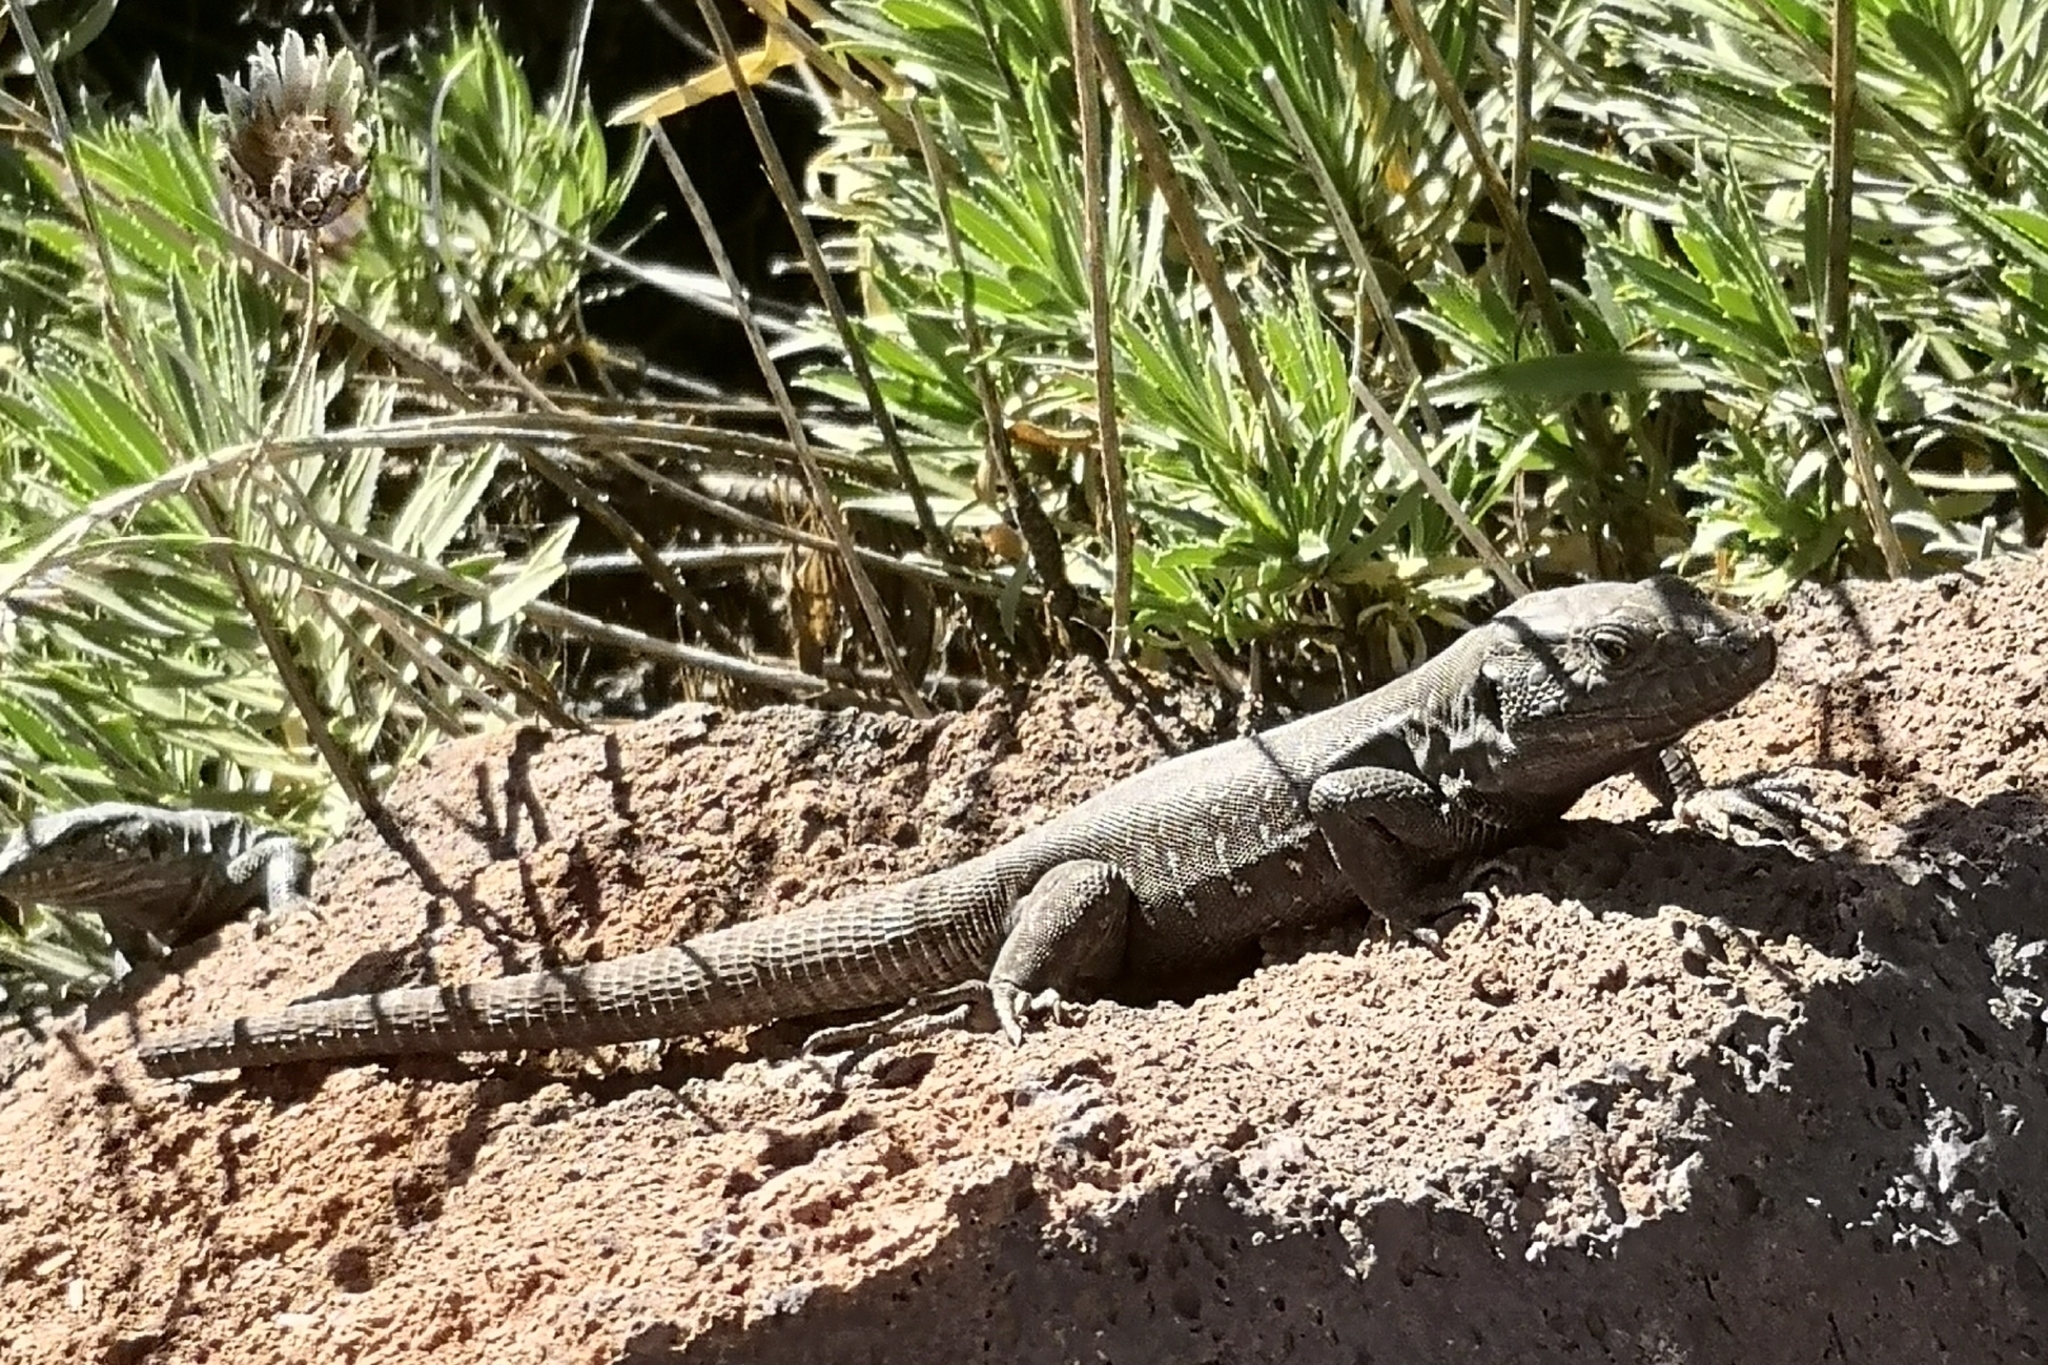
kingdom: Animalia
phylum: Chordata
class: Squamata
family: Lacertidae
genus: Gallotia
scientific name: Gallotia galloti
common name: Gallot's lizard
